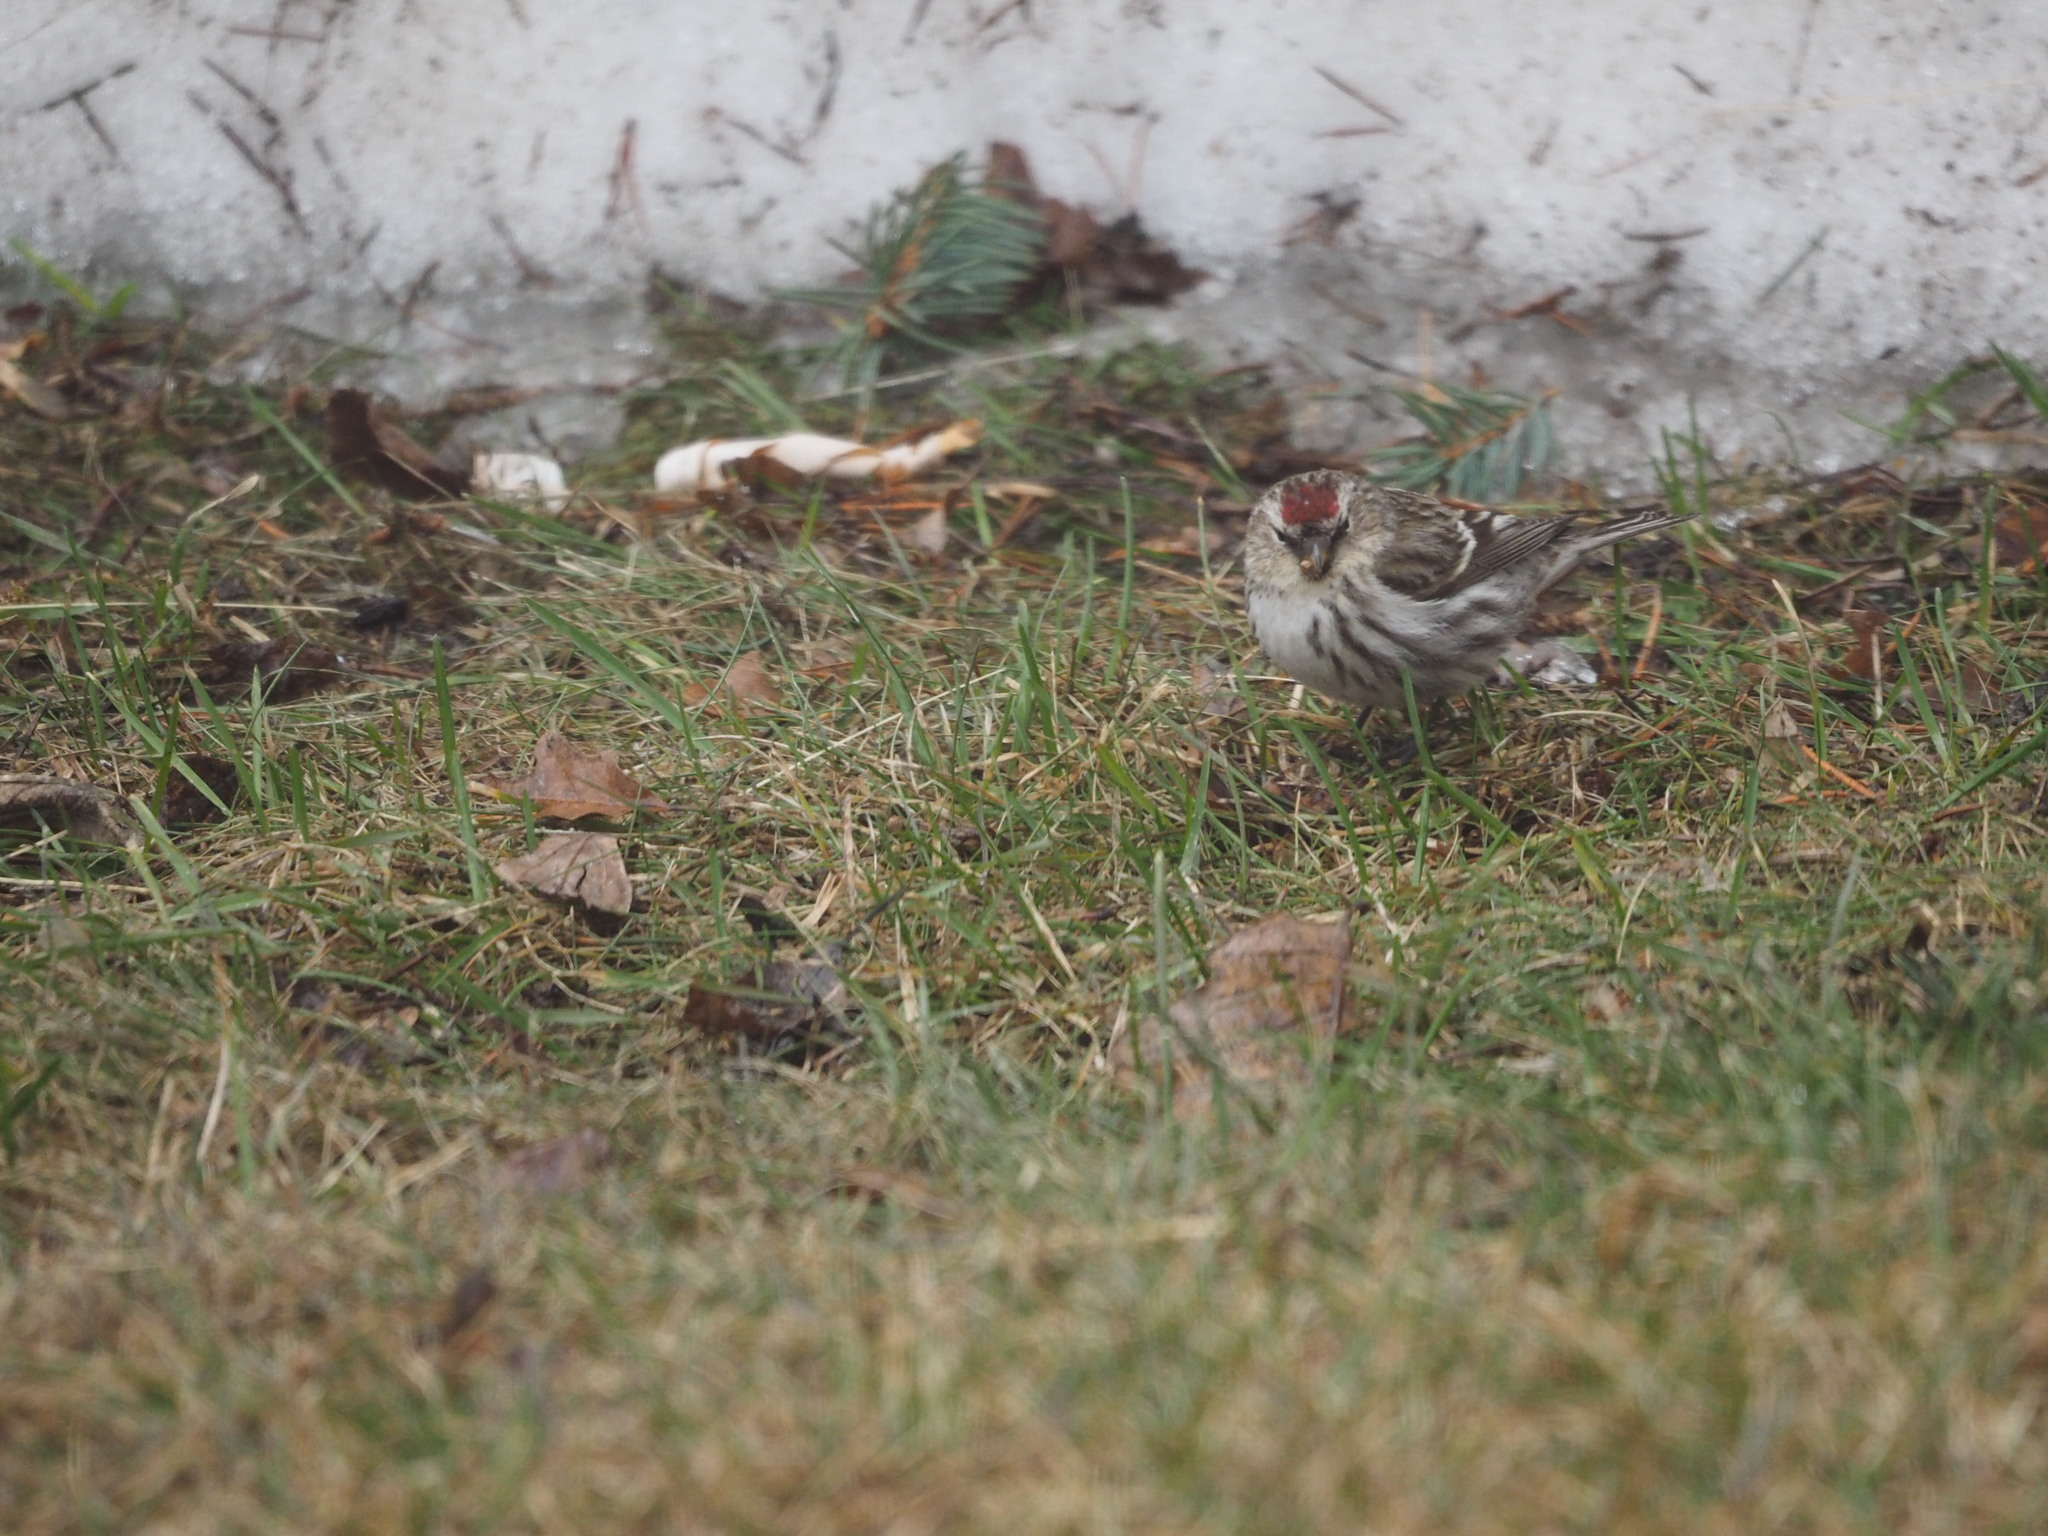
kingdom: Animalia
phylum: Chordata
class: Aves
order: Passeriformes
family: Fringillidae
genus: Acanthis
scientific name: Acanthis flammea
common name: Common redpoll
